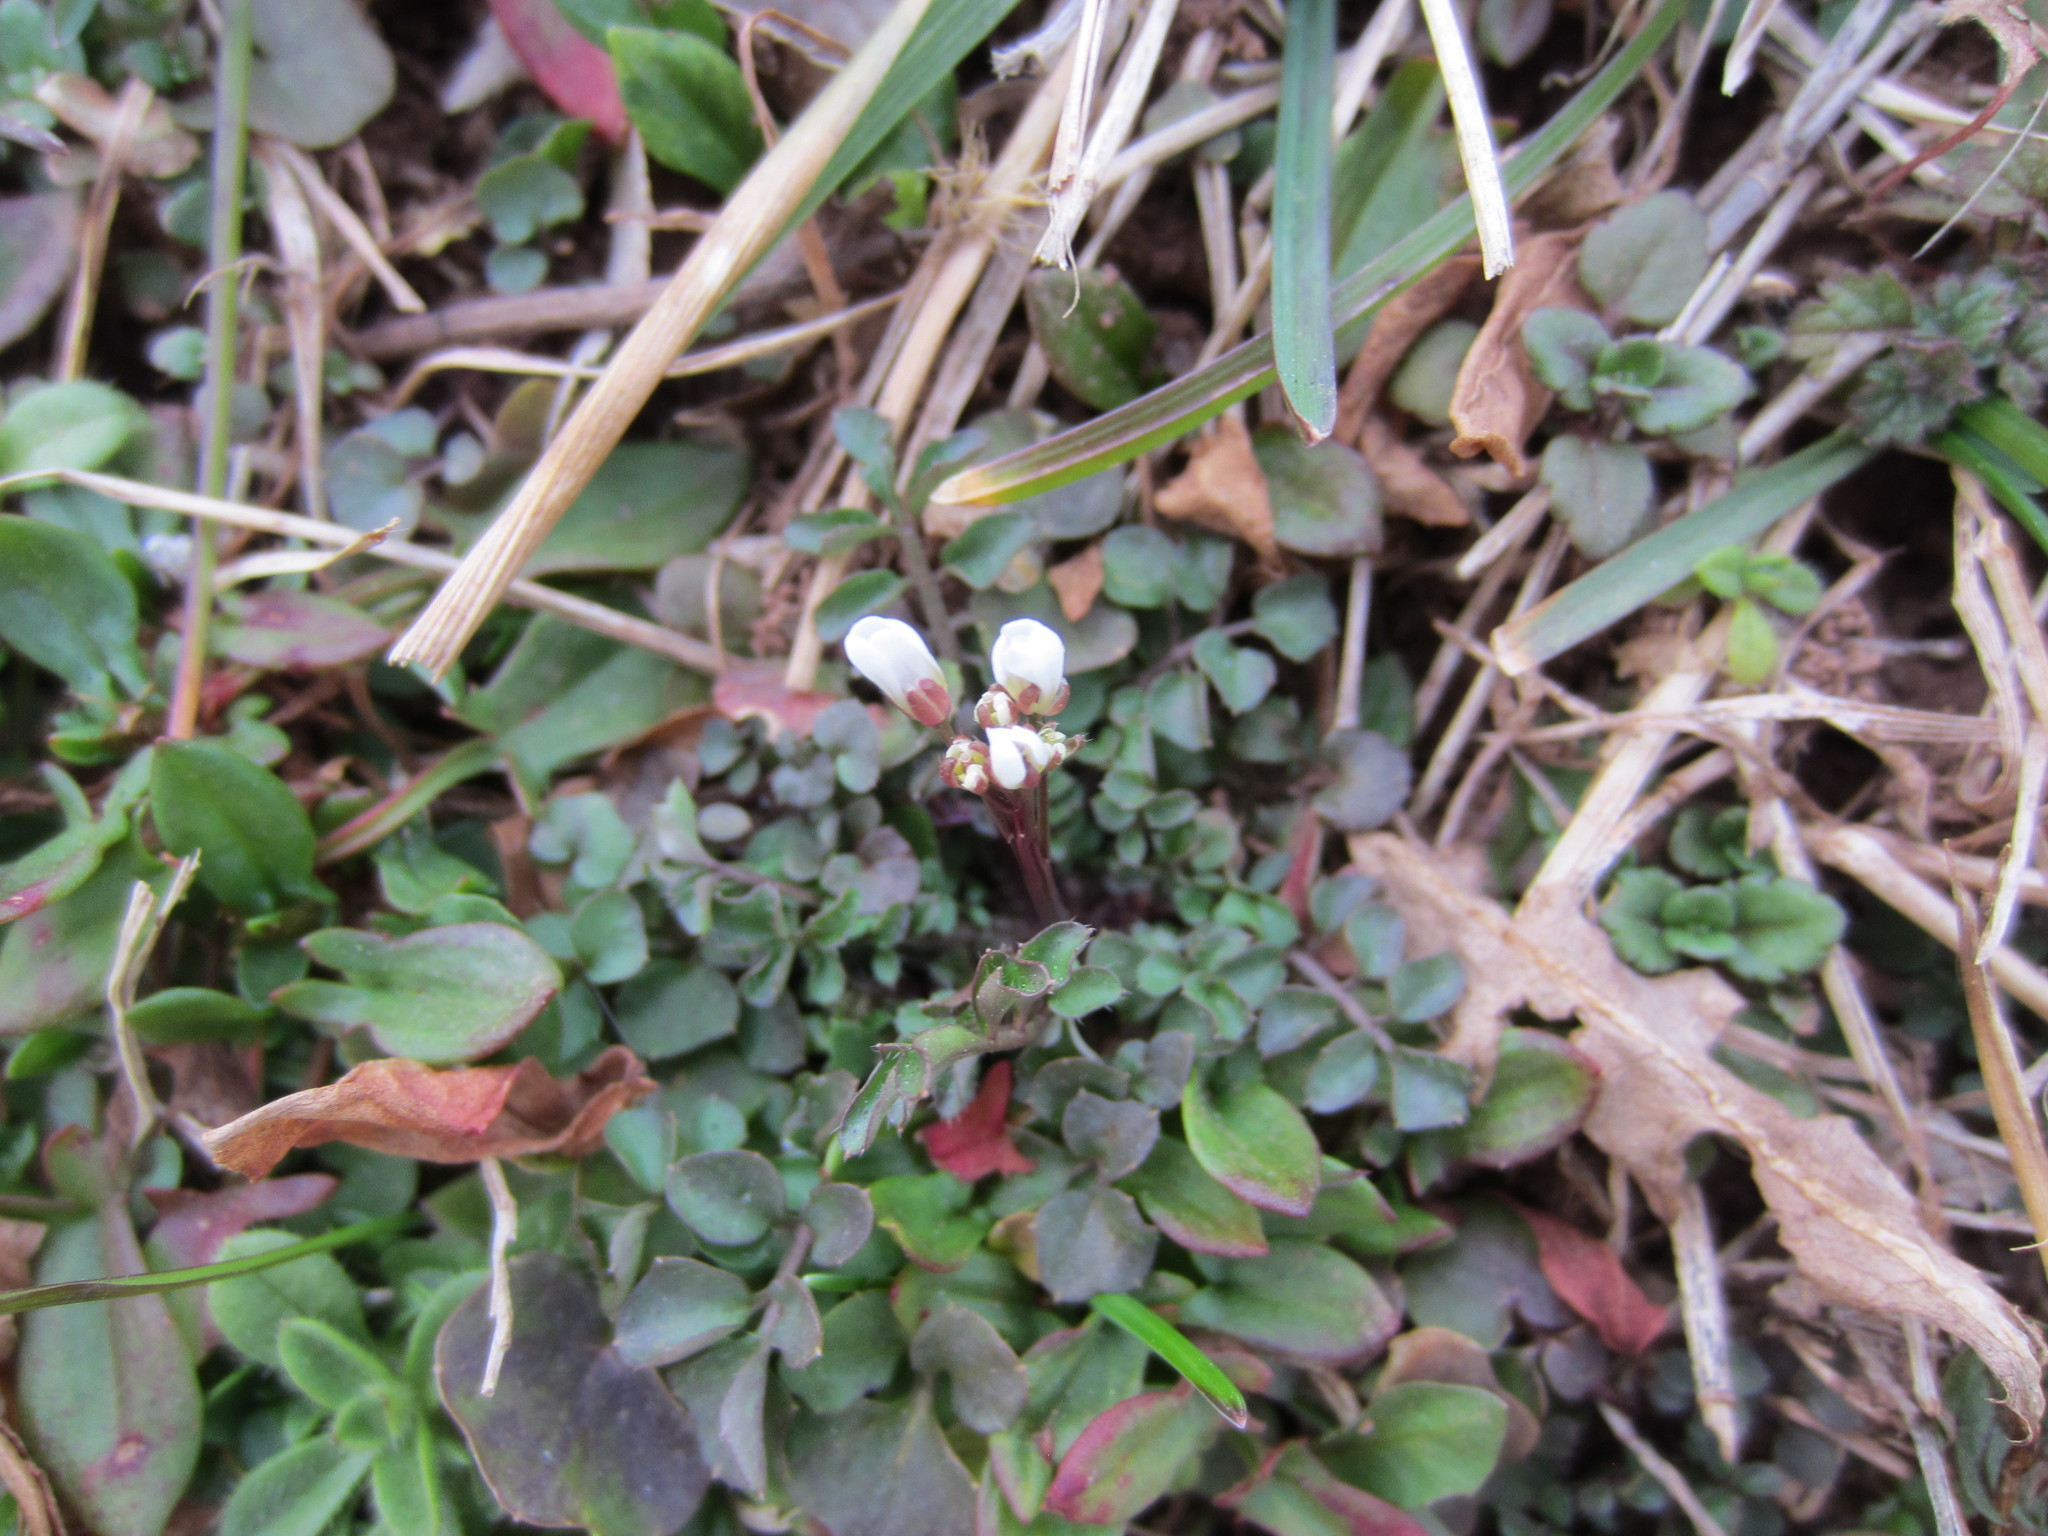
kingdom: Plantae
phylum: Tracheophyta
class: Magnoliopsida
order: Brassicales
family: Brassicaceae
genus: Cardamine
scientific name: Cardamine hirsuta
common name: Hairy bittercress
